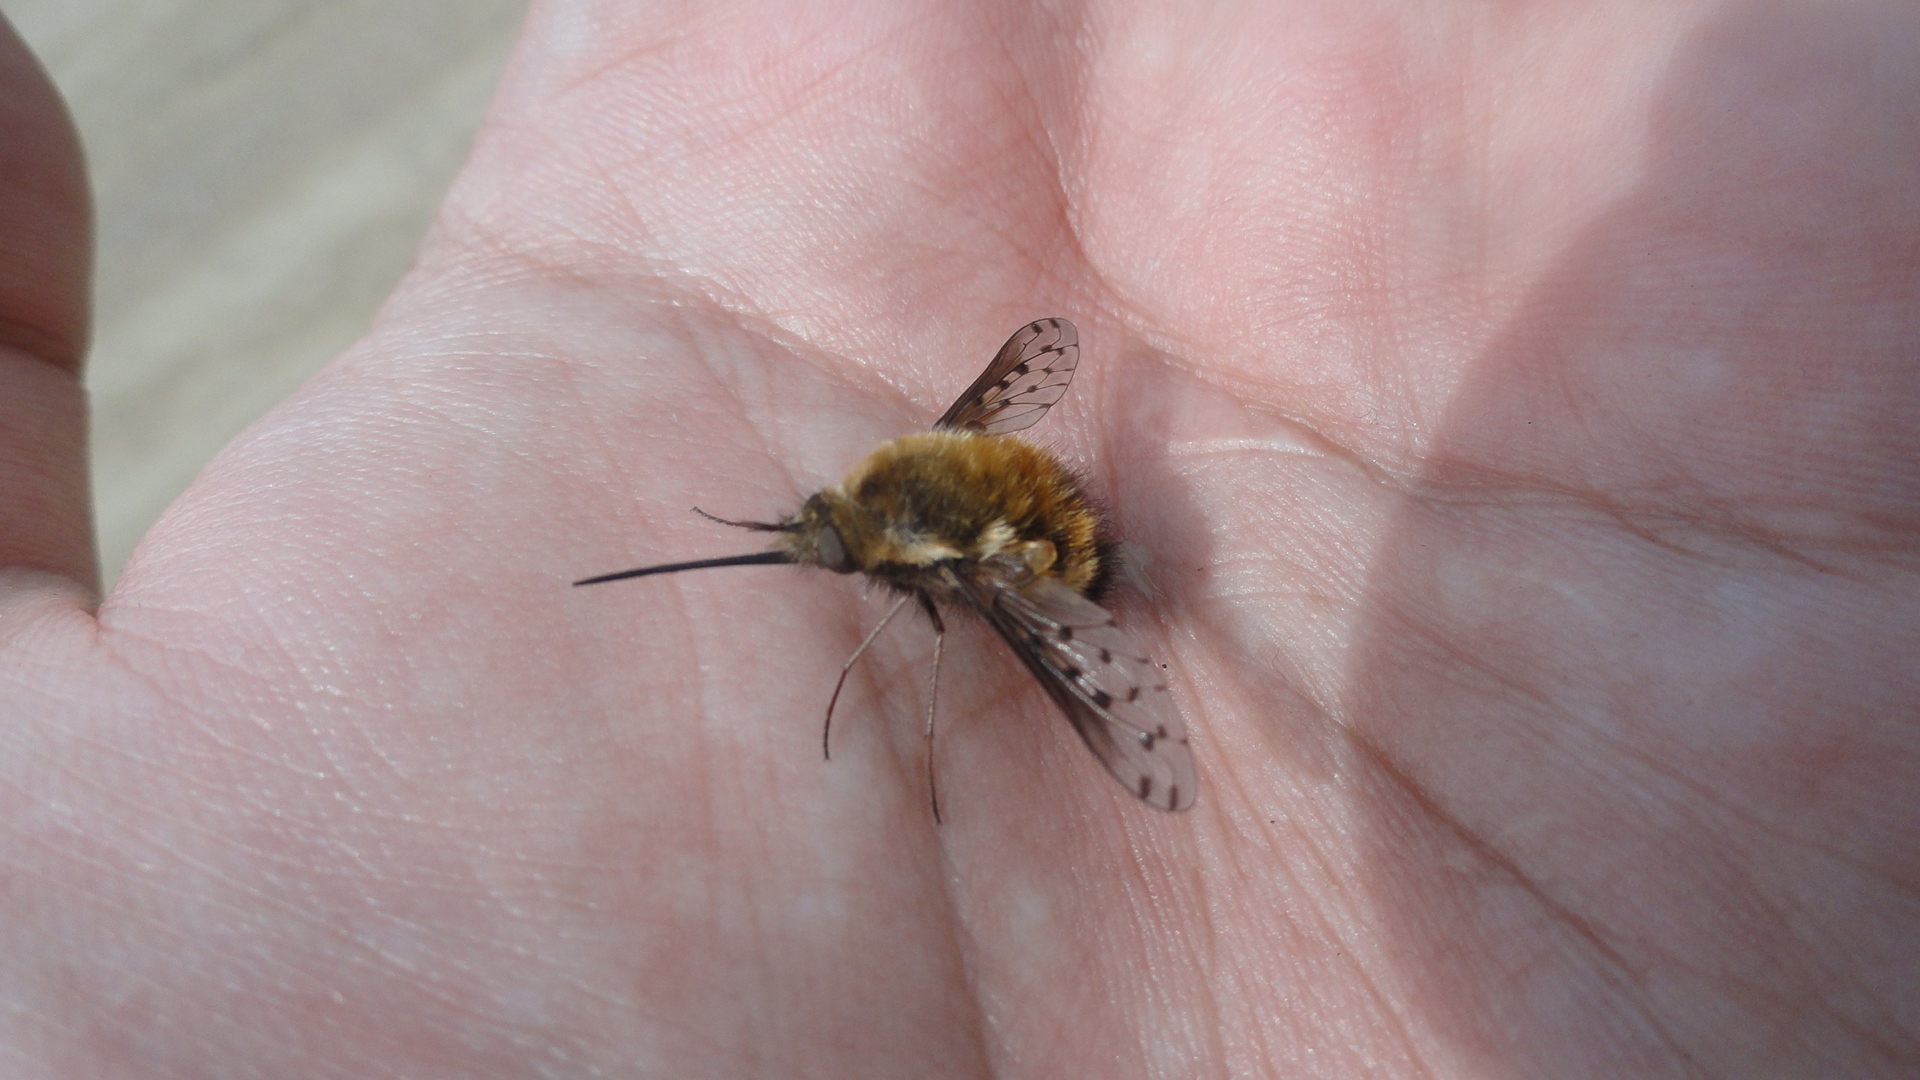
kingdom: Animalia
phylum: Arthropoda
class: Insecta
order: Diptera
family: Bombyliidae
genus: Bombylius
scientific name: Bombylius discolor
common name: Dotted bee-fly
